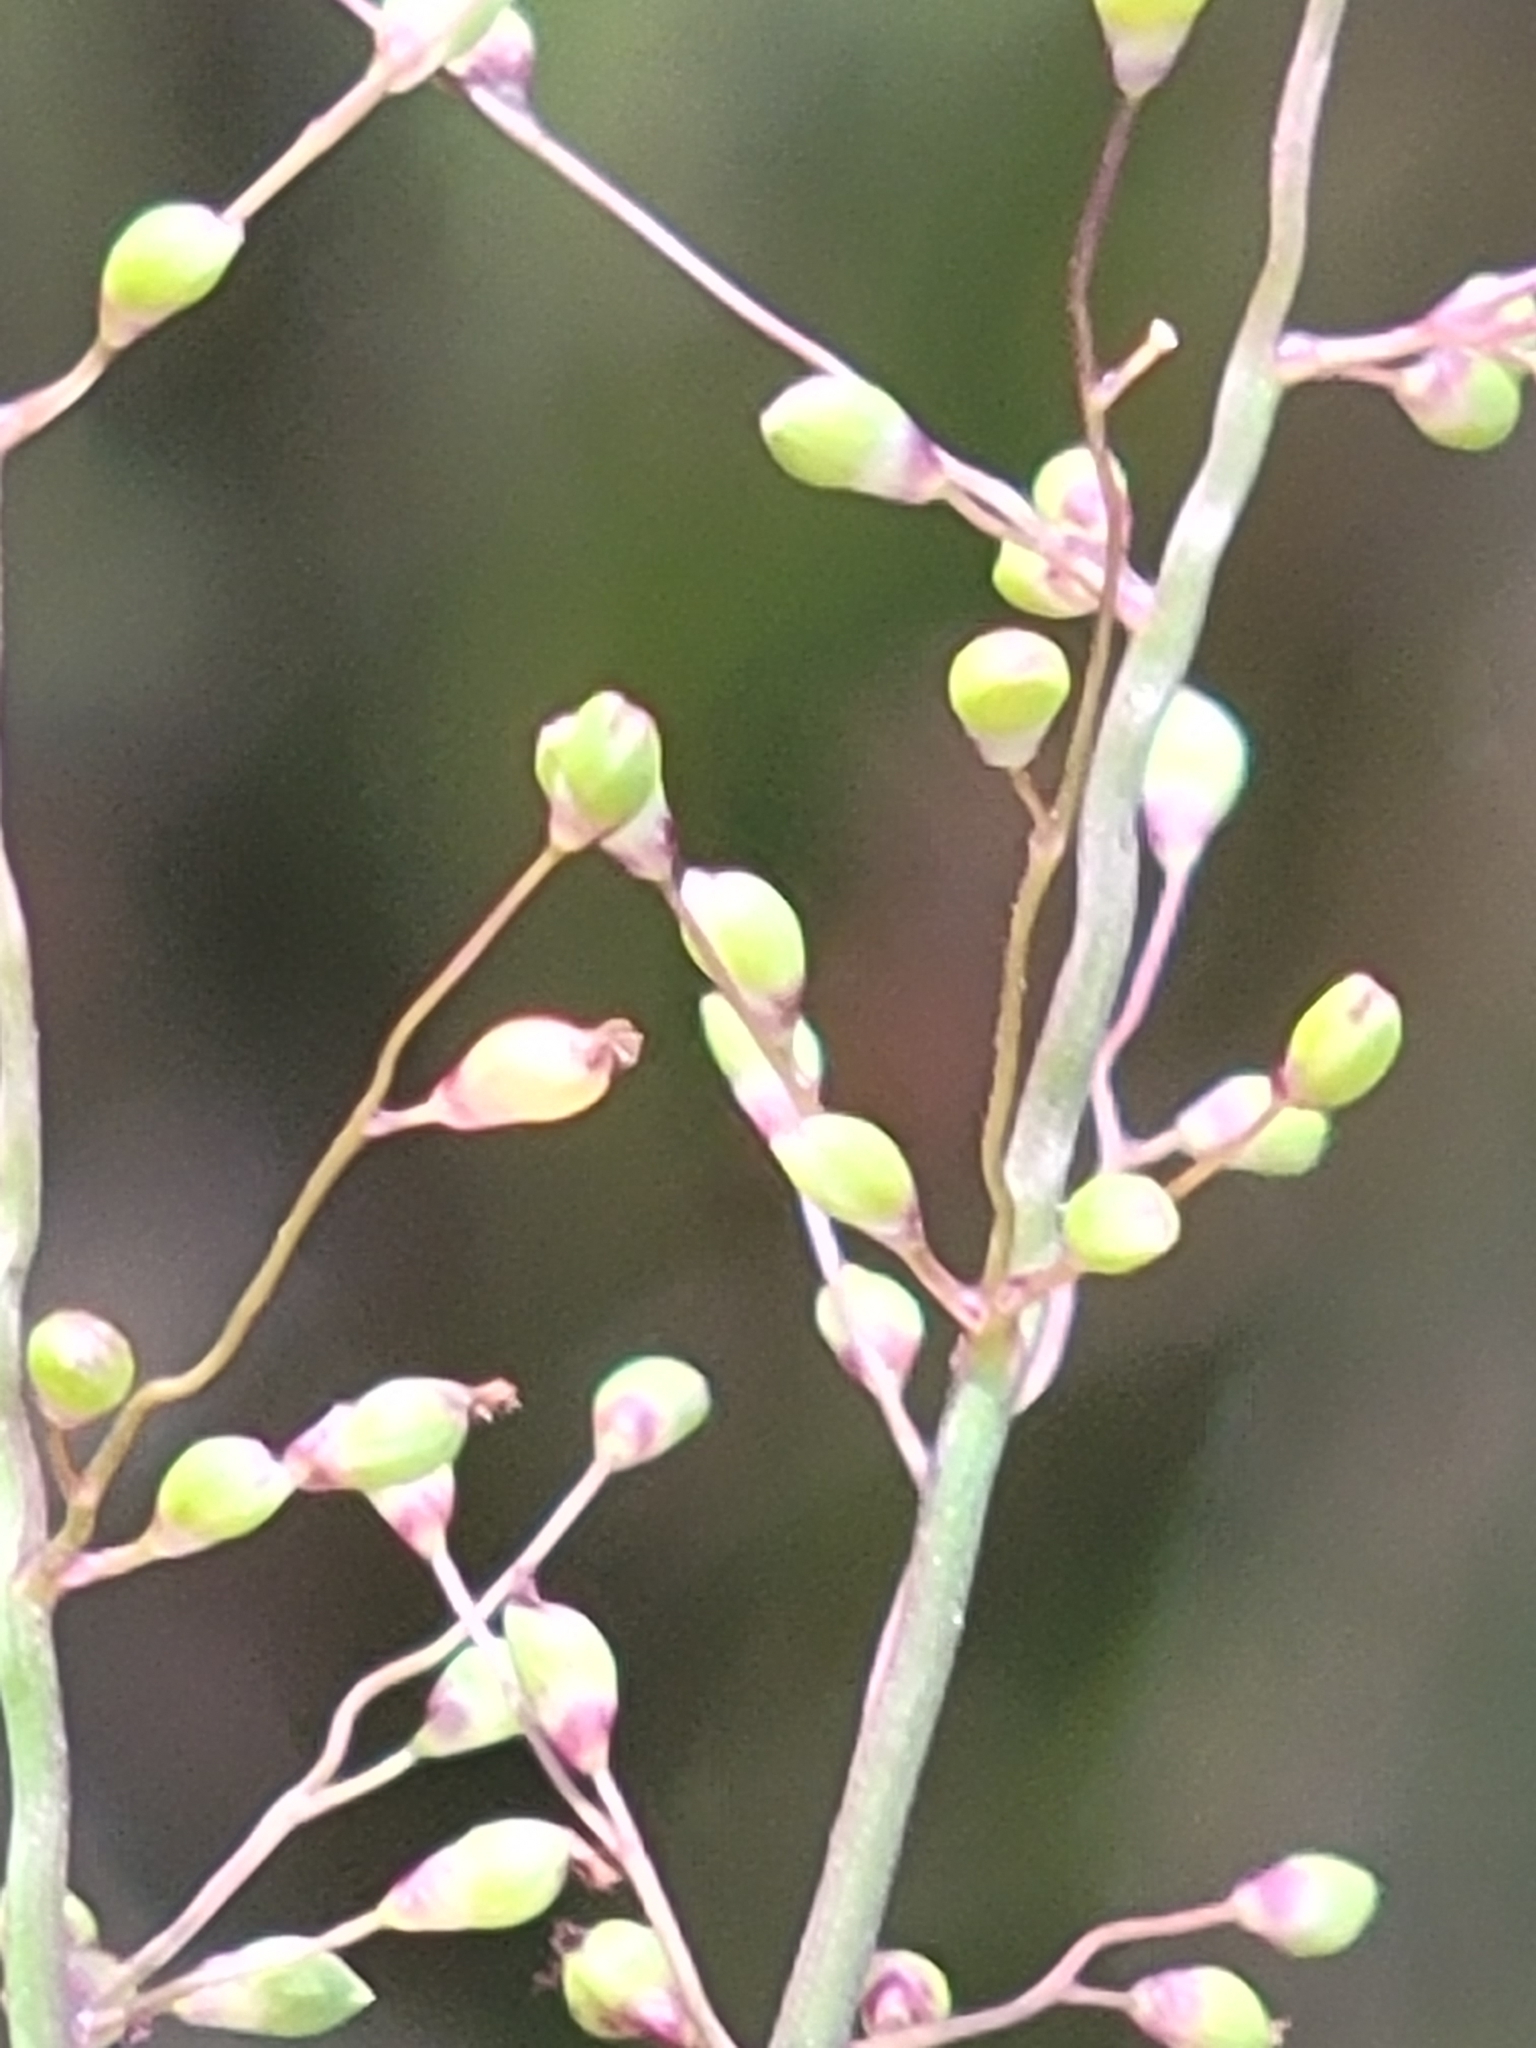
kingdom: Plantae
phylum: Tracheophyta
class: Liliopsida
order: Poales
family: Poaceae
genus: Dichanthelium
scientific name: Dichanthelium portoricense
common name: American panicgrass
